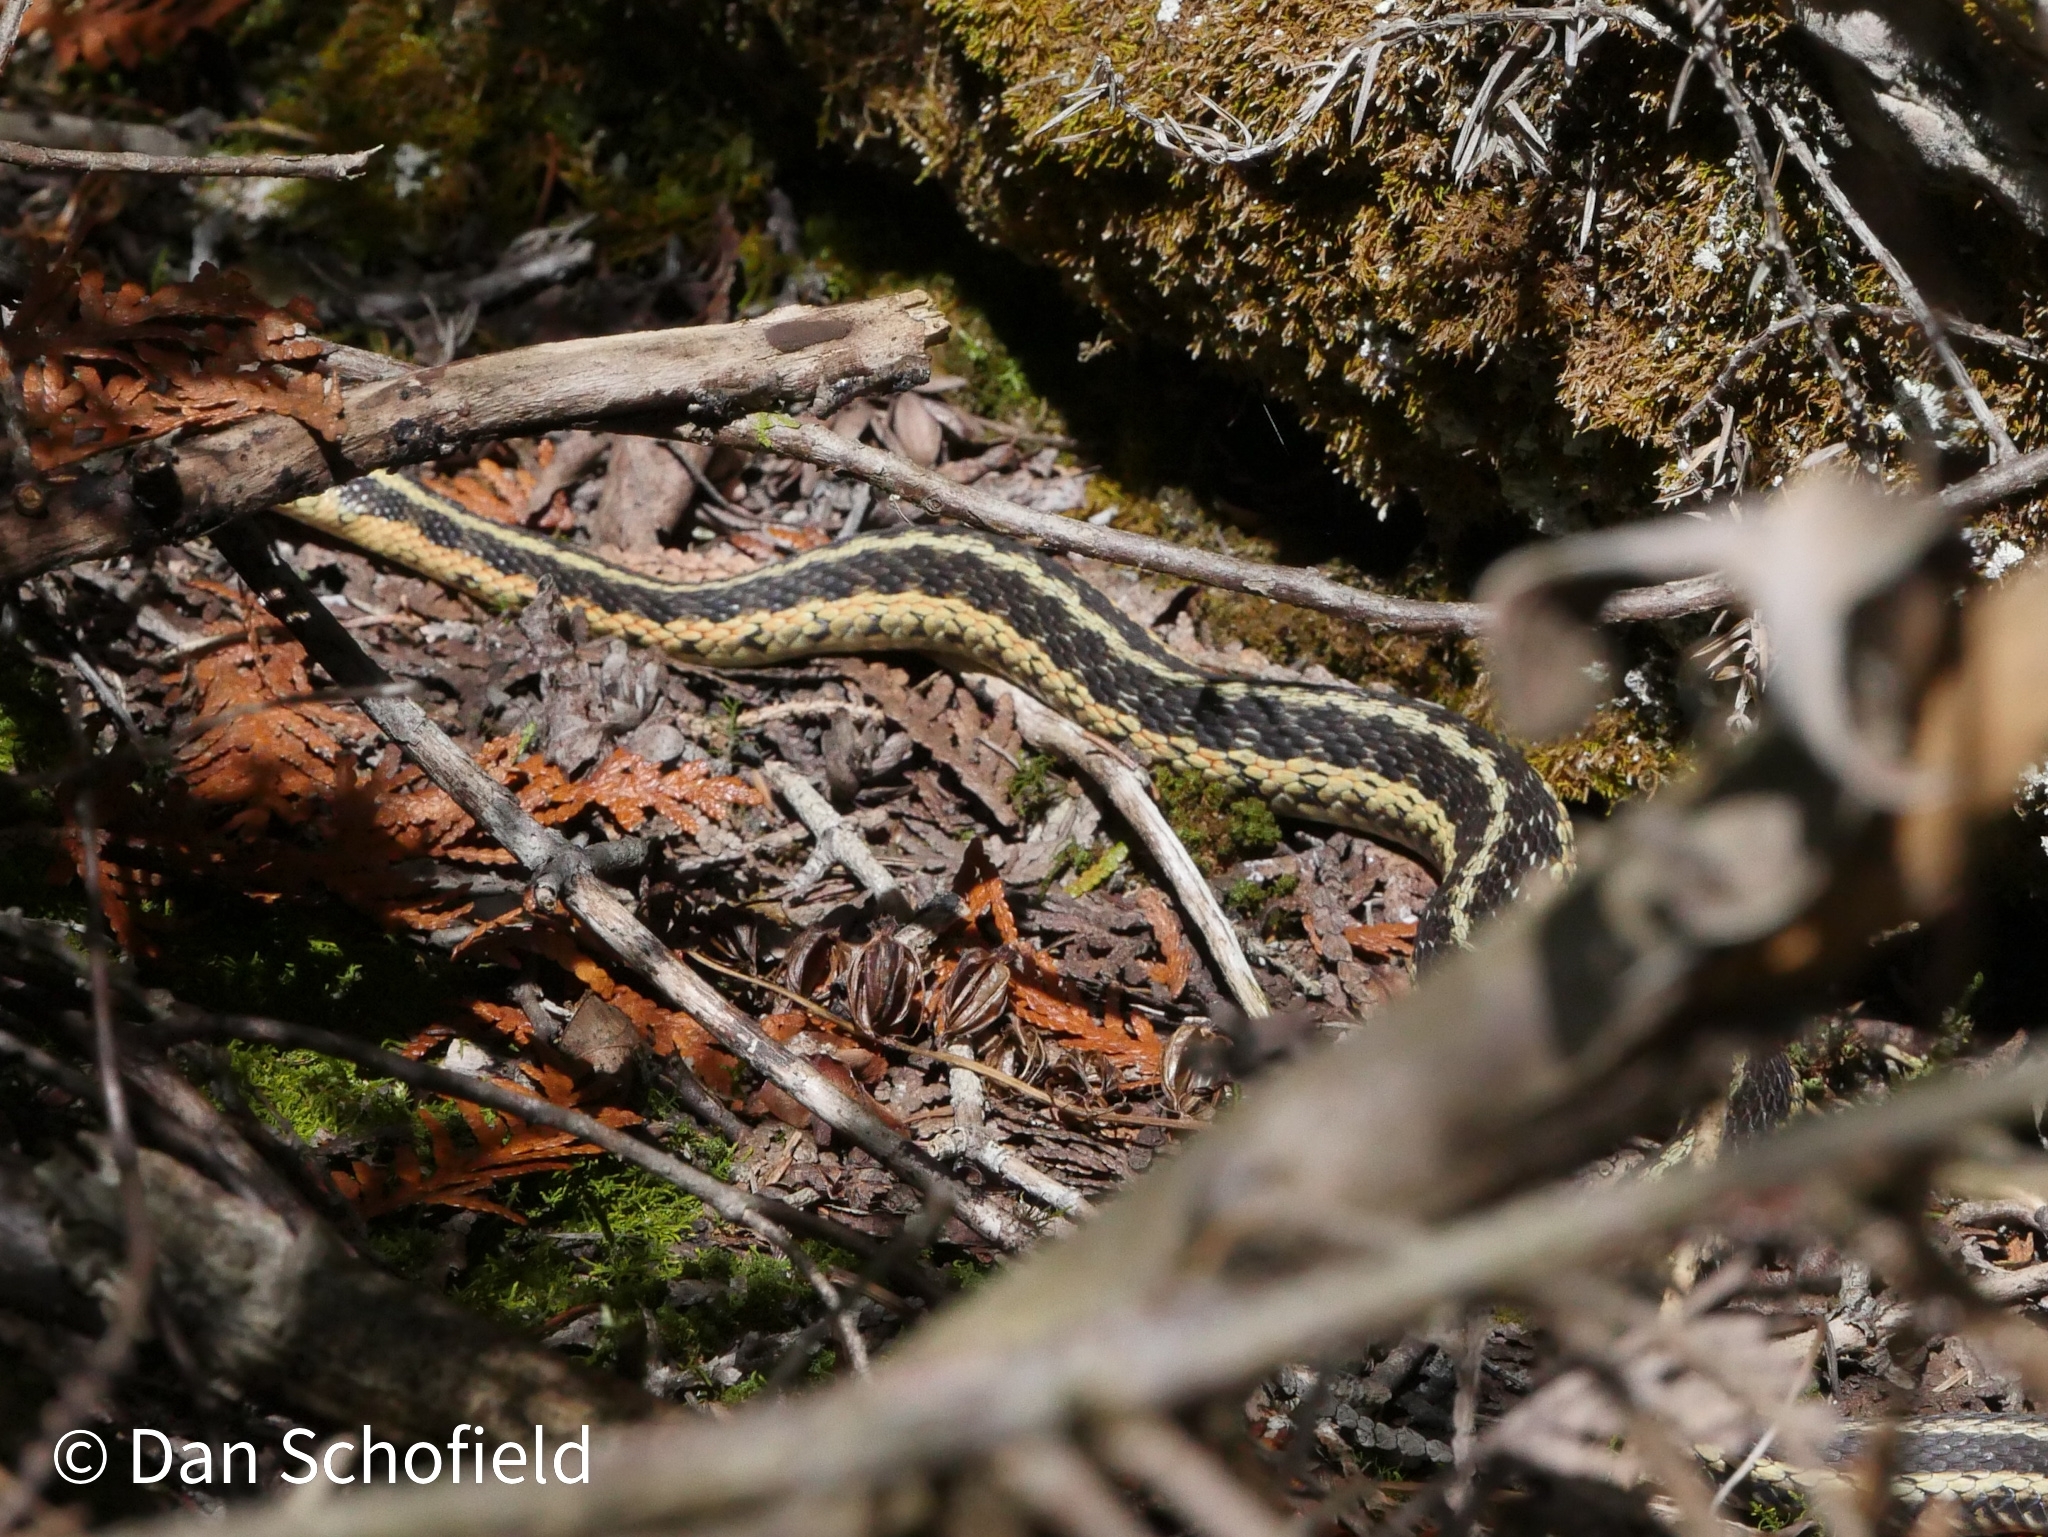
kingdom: Animalia
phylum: Chordata
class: Squamata
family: Colubridae
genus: Thamnophis
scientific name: Thamnophis sirtalis
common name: Common garter snake
